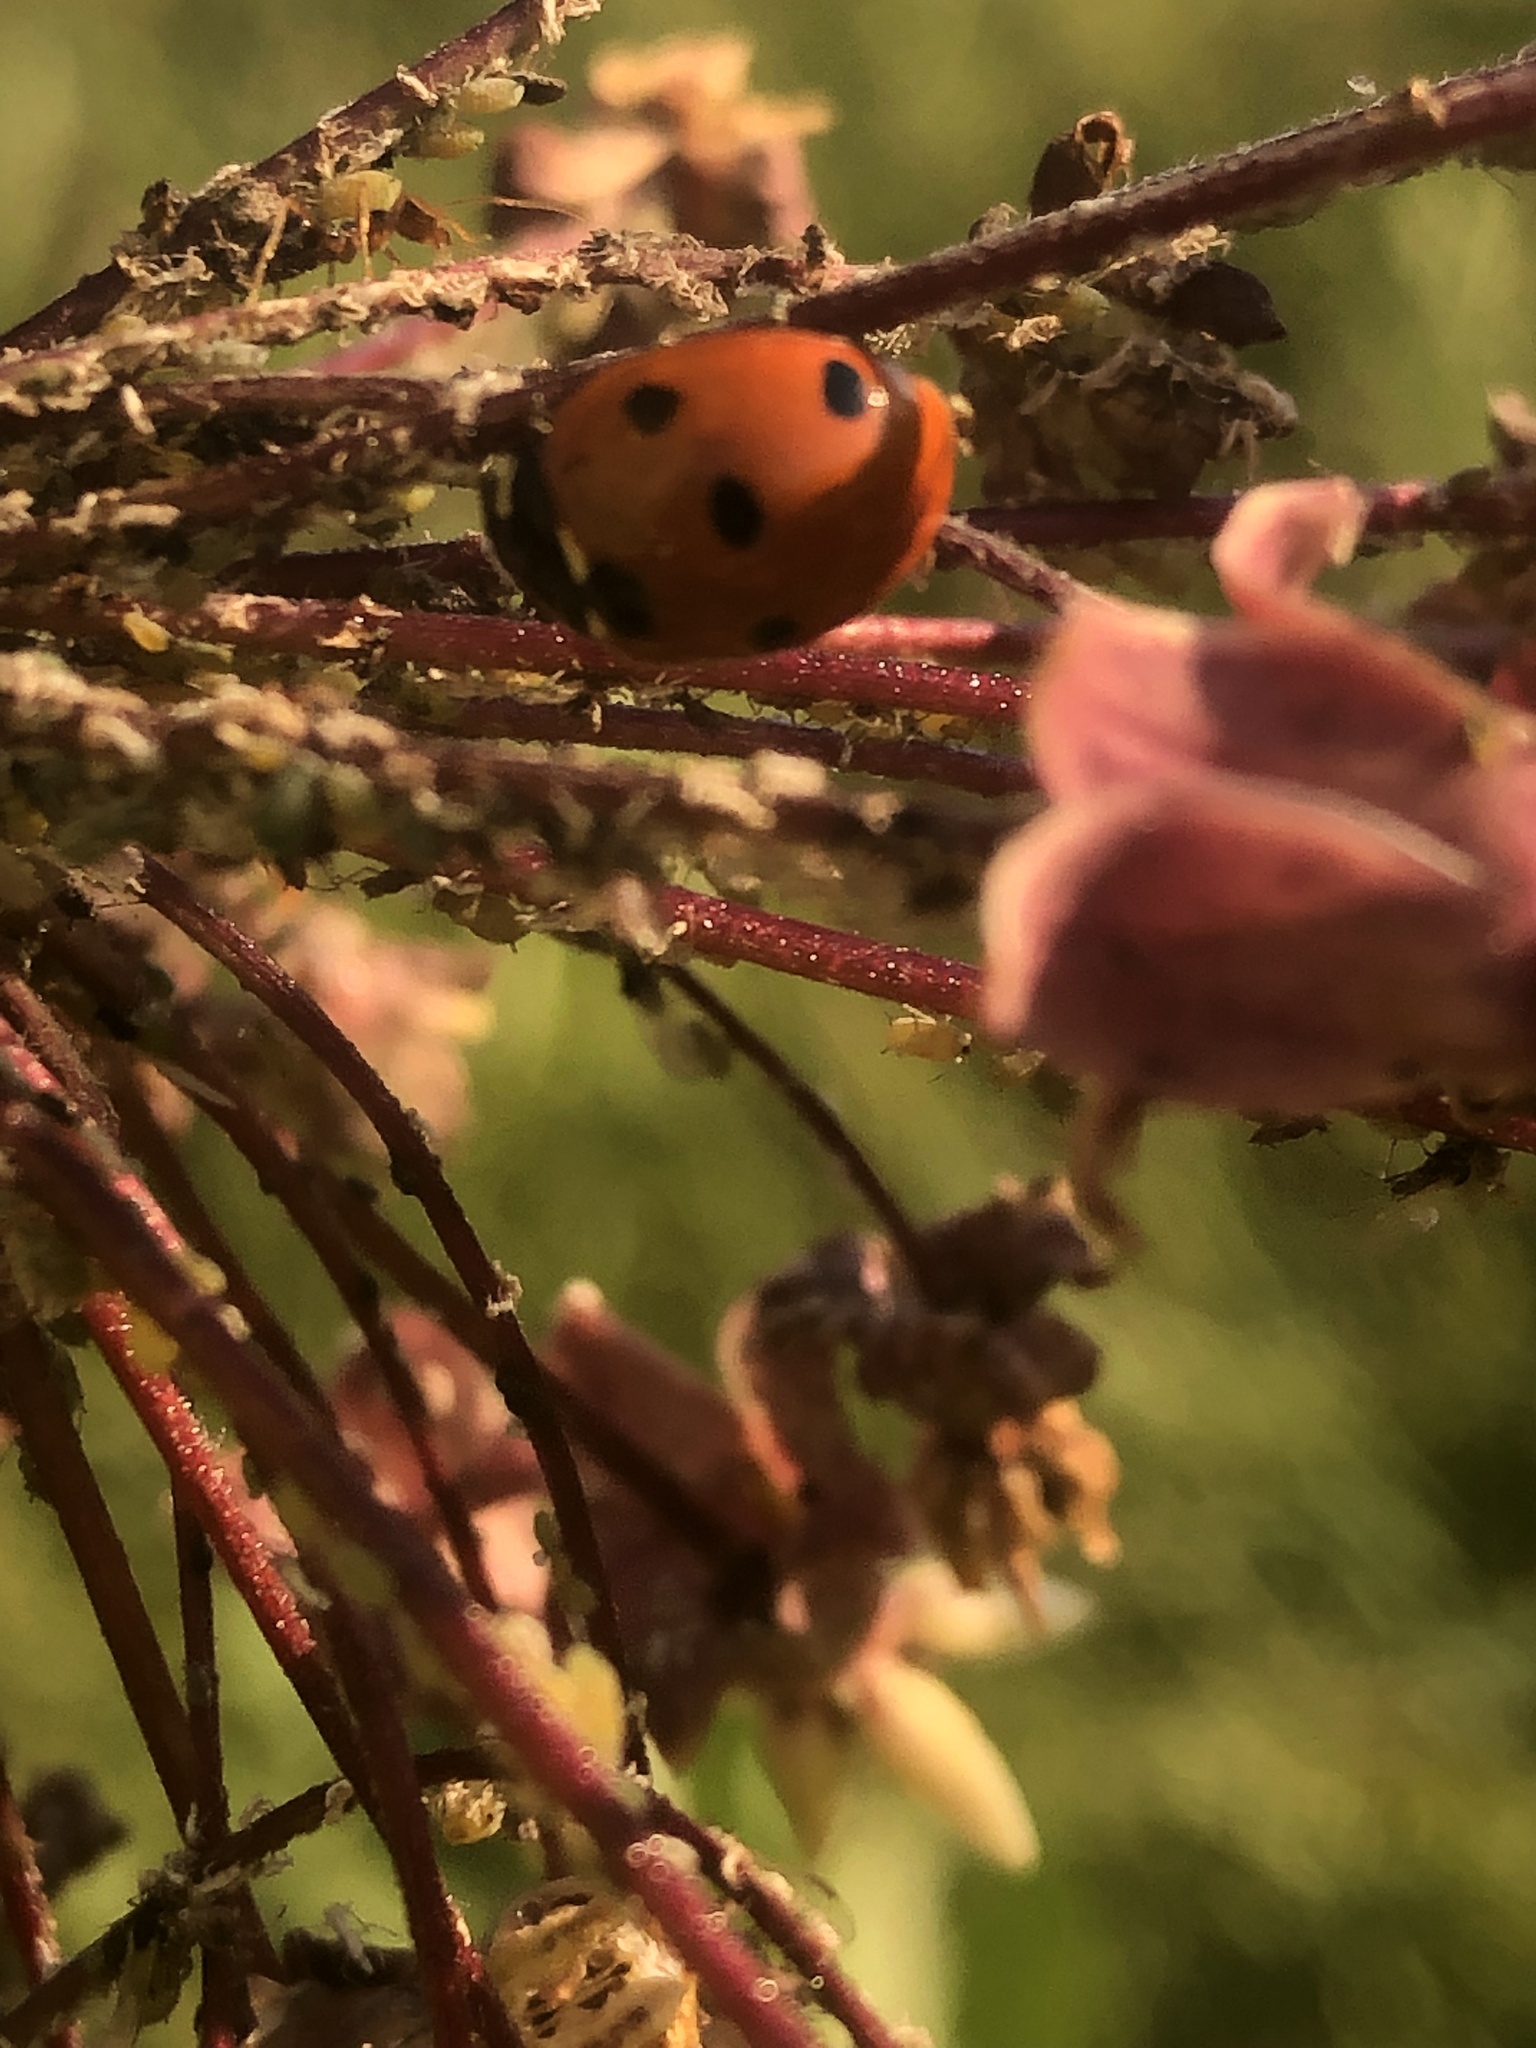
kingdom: Animalia
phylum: Arthropoda
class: Insecta
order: Coleoptera
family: Coccinellidae
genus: Coccinella
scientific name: Coccinella septempunctata
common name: Sevenspotted lady beetle
